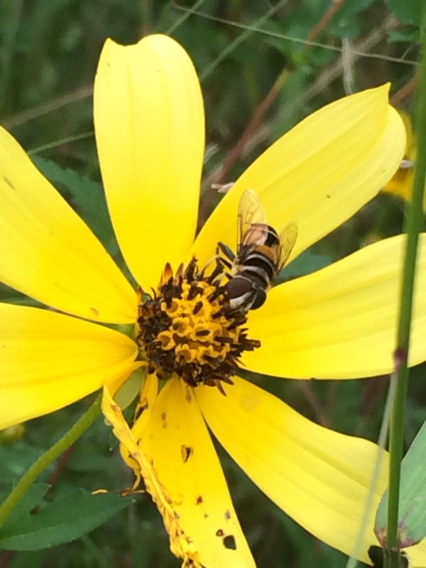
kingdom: Animalia
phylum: Arthropoda
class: Insecta
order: Diptera
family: Syrphidae
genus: Palpada
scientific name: Palpada vinetorum
